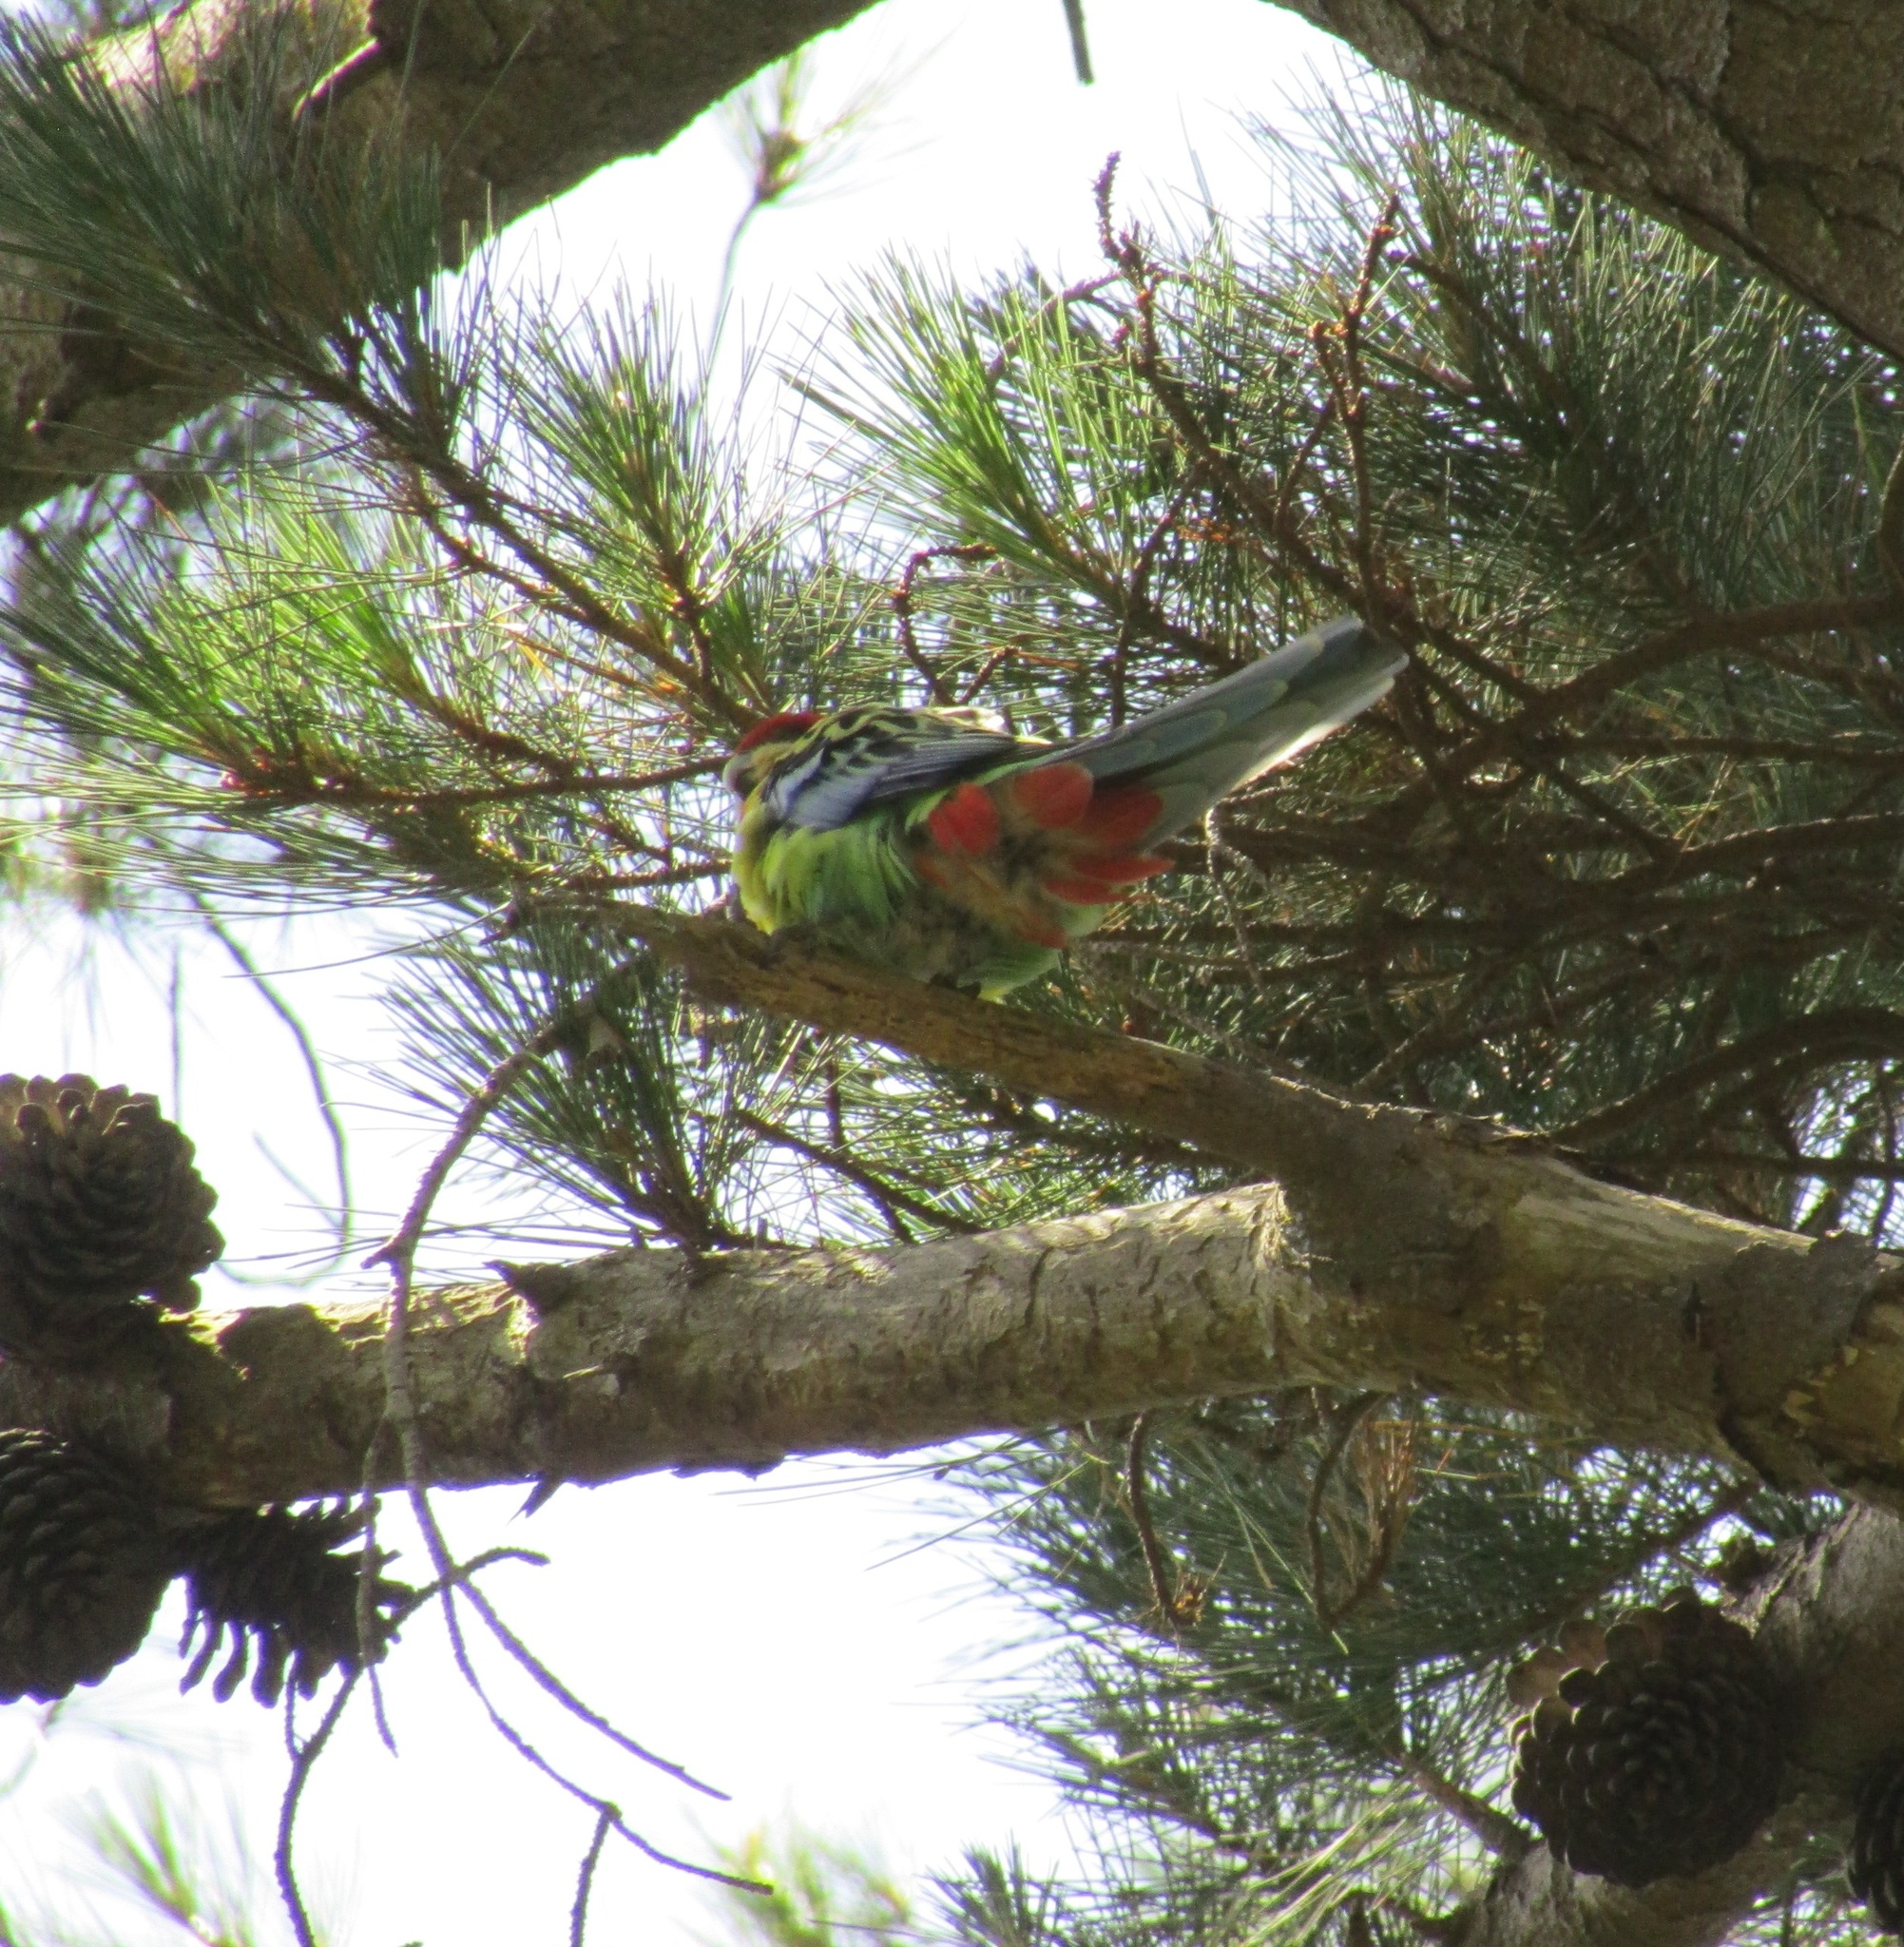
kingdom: Animalia
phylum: Chordata
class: Aves
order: Psittaciformes
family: Psittacidae
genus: Platycercus
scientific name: Platycercus eximius
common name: Eastern rosella
